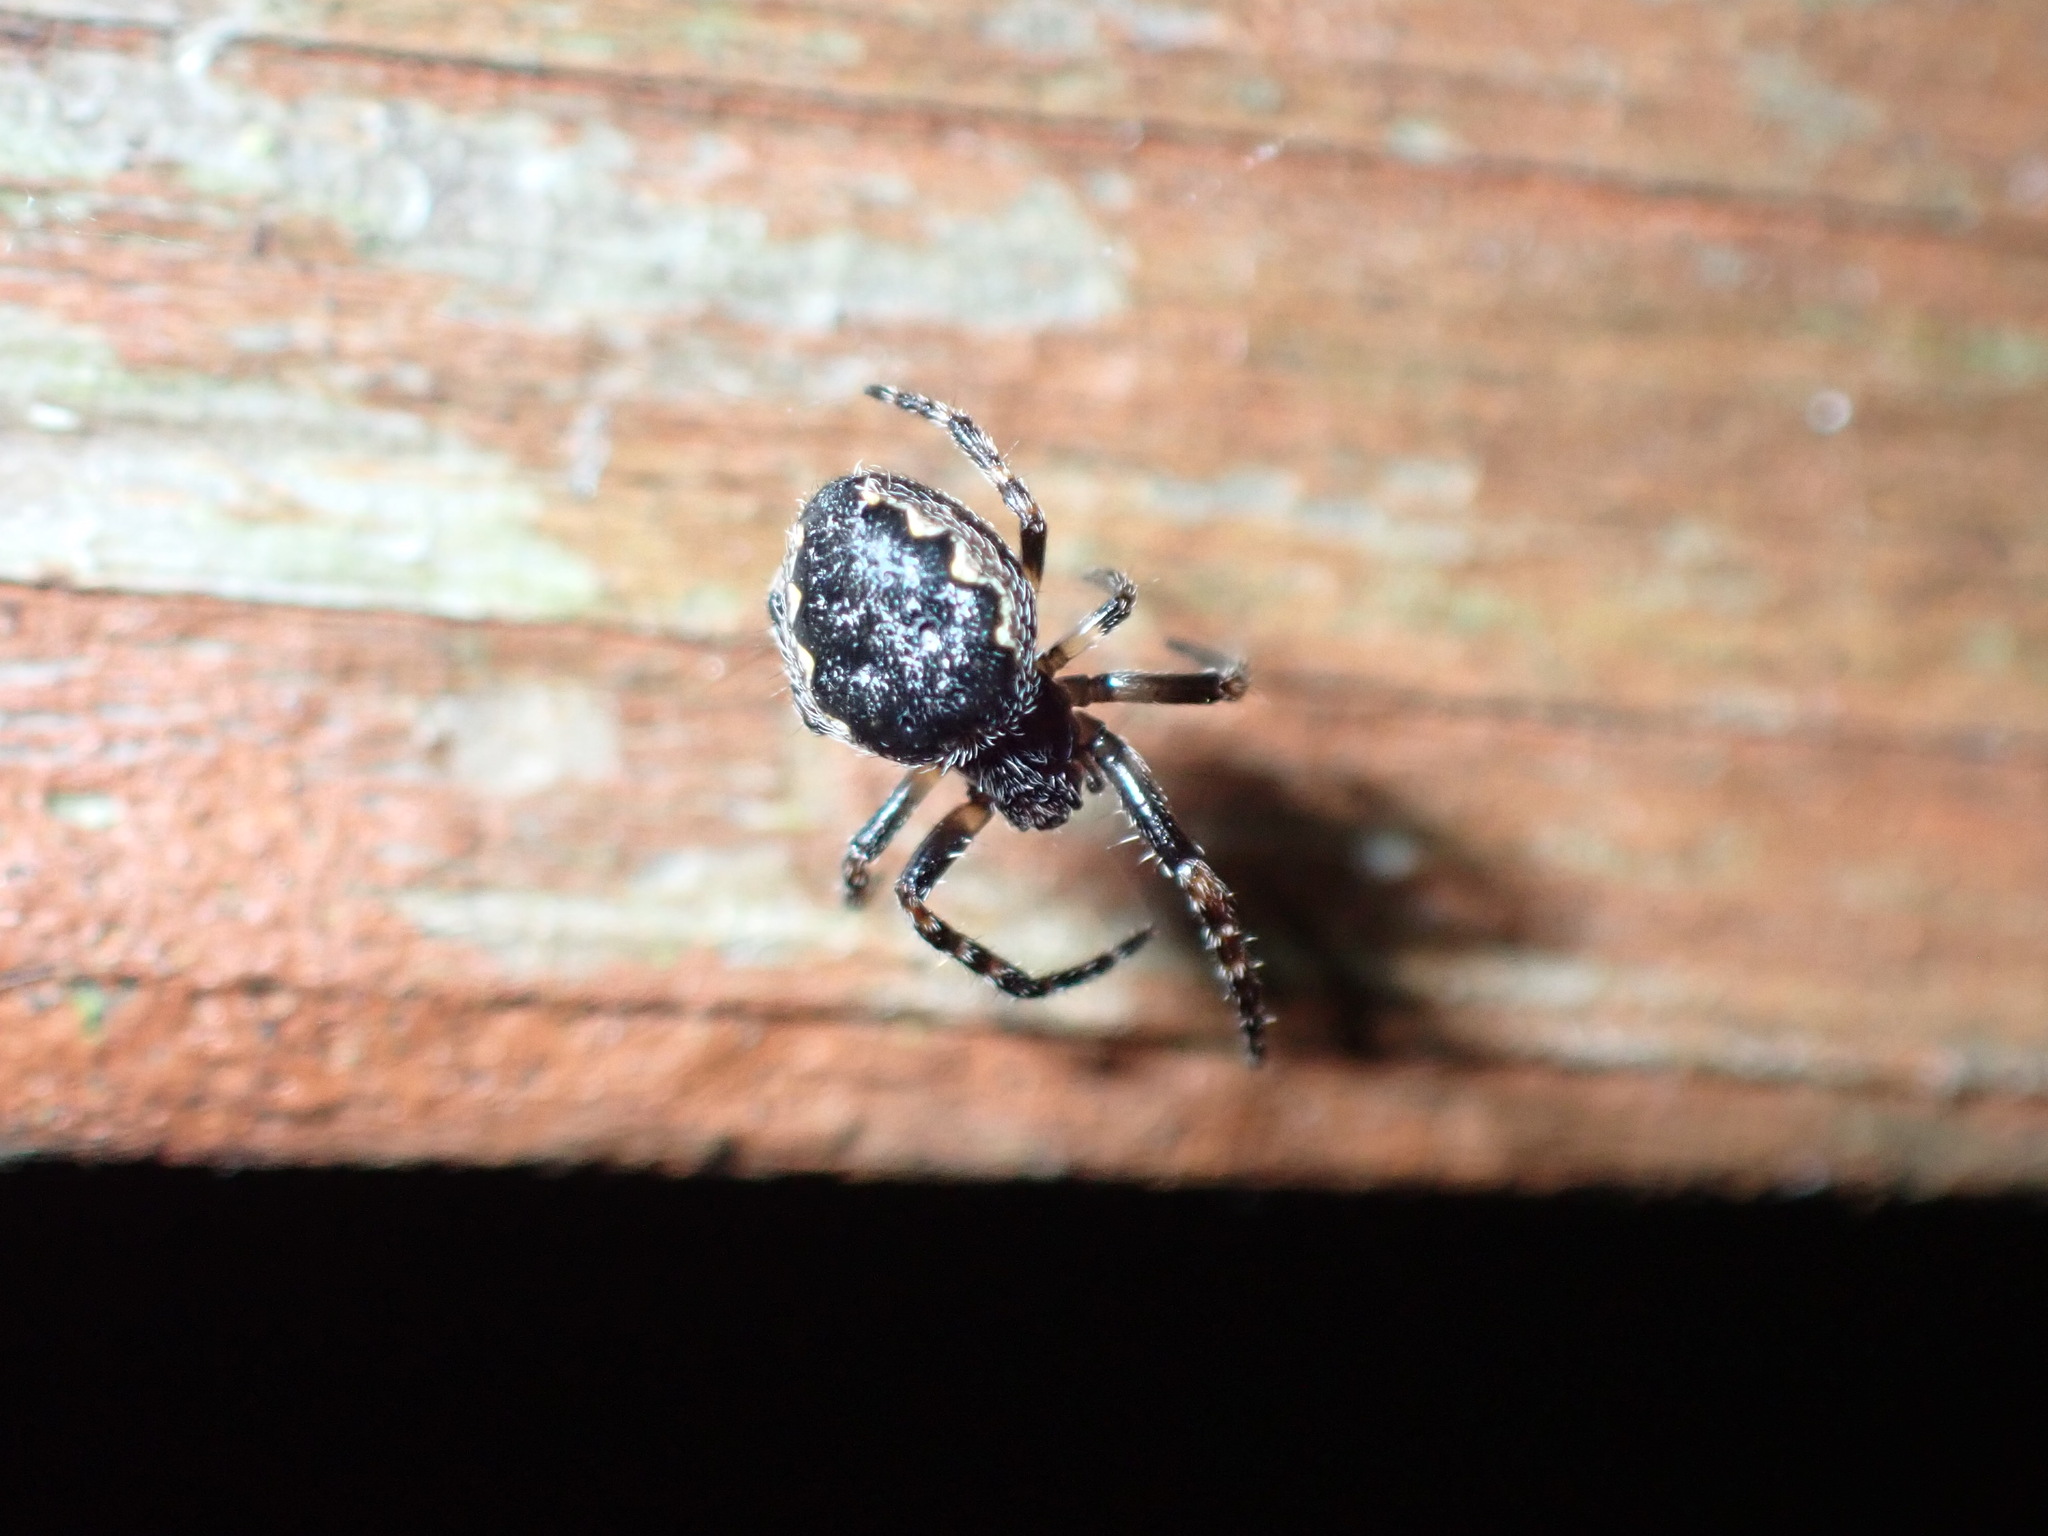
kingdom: Animalia
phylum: Arthropoda
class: Arachnida
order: Araneae
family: Araneidae
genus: Nuctenea
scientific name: Nuctenea umbratica
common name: Toad spider
